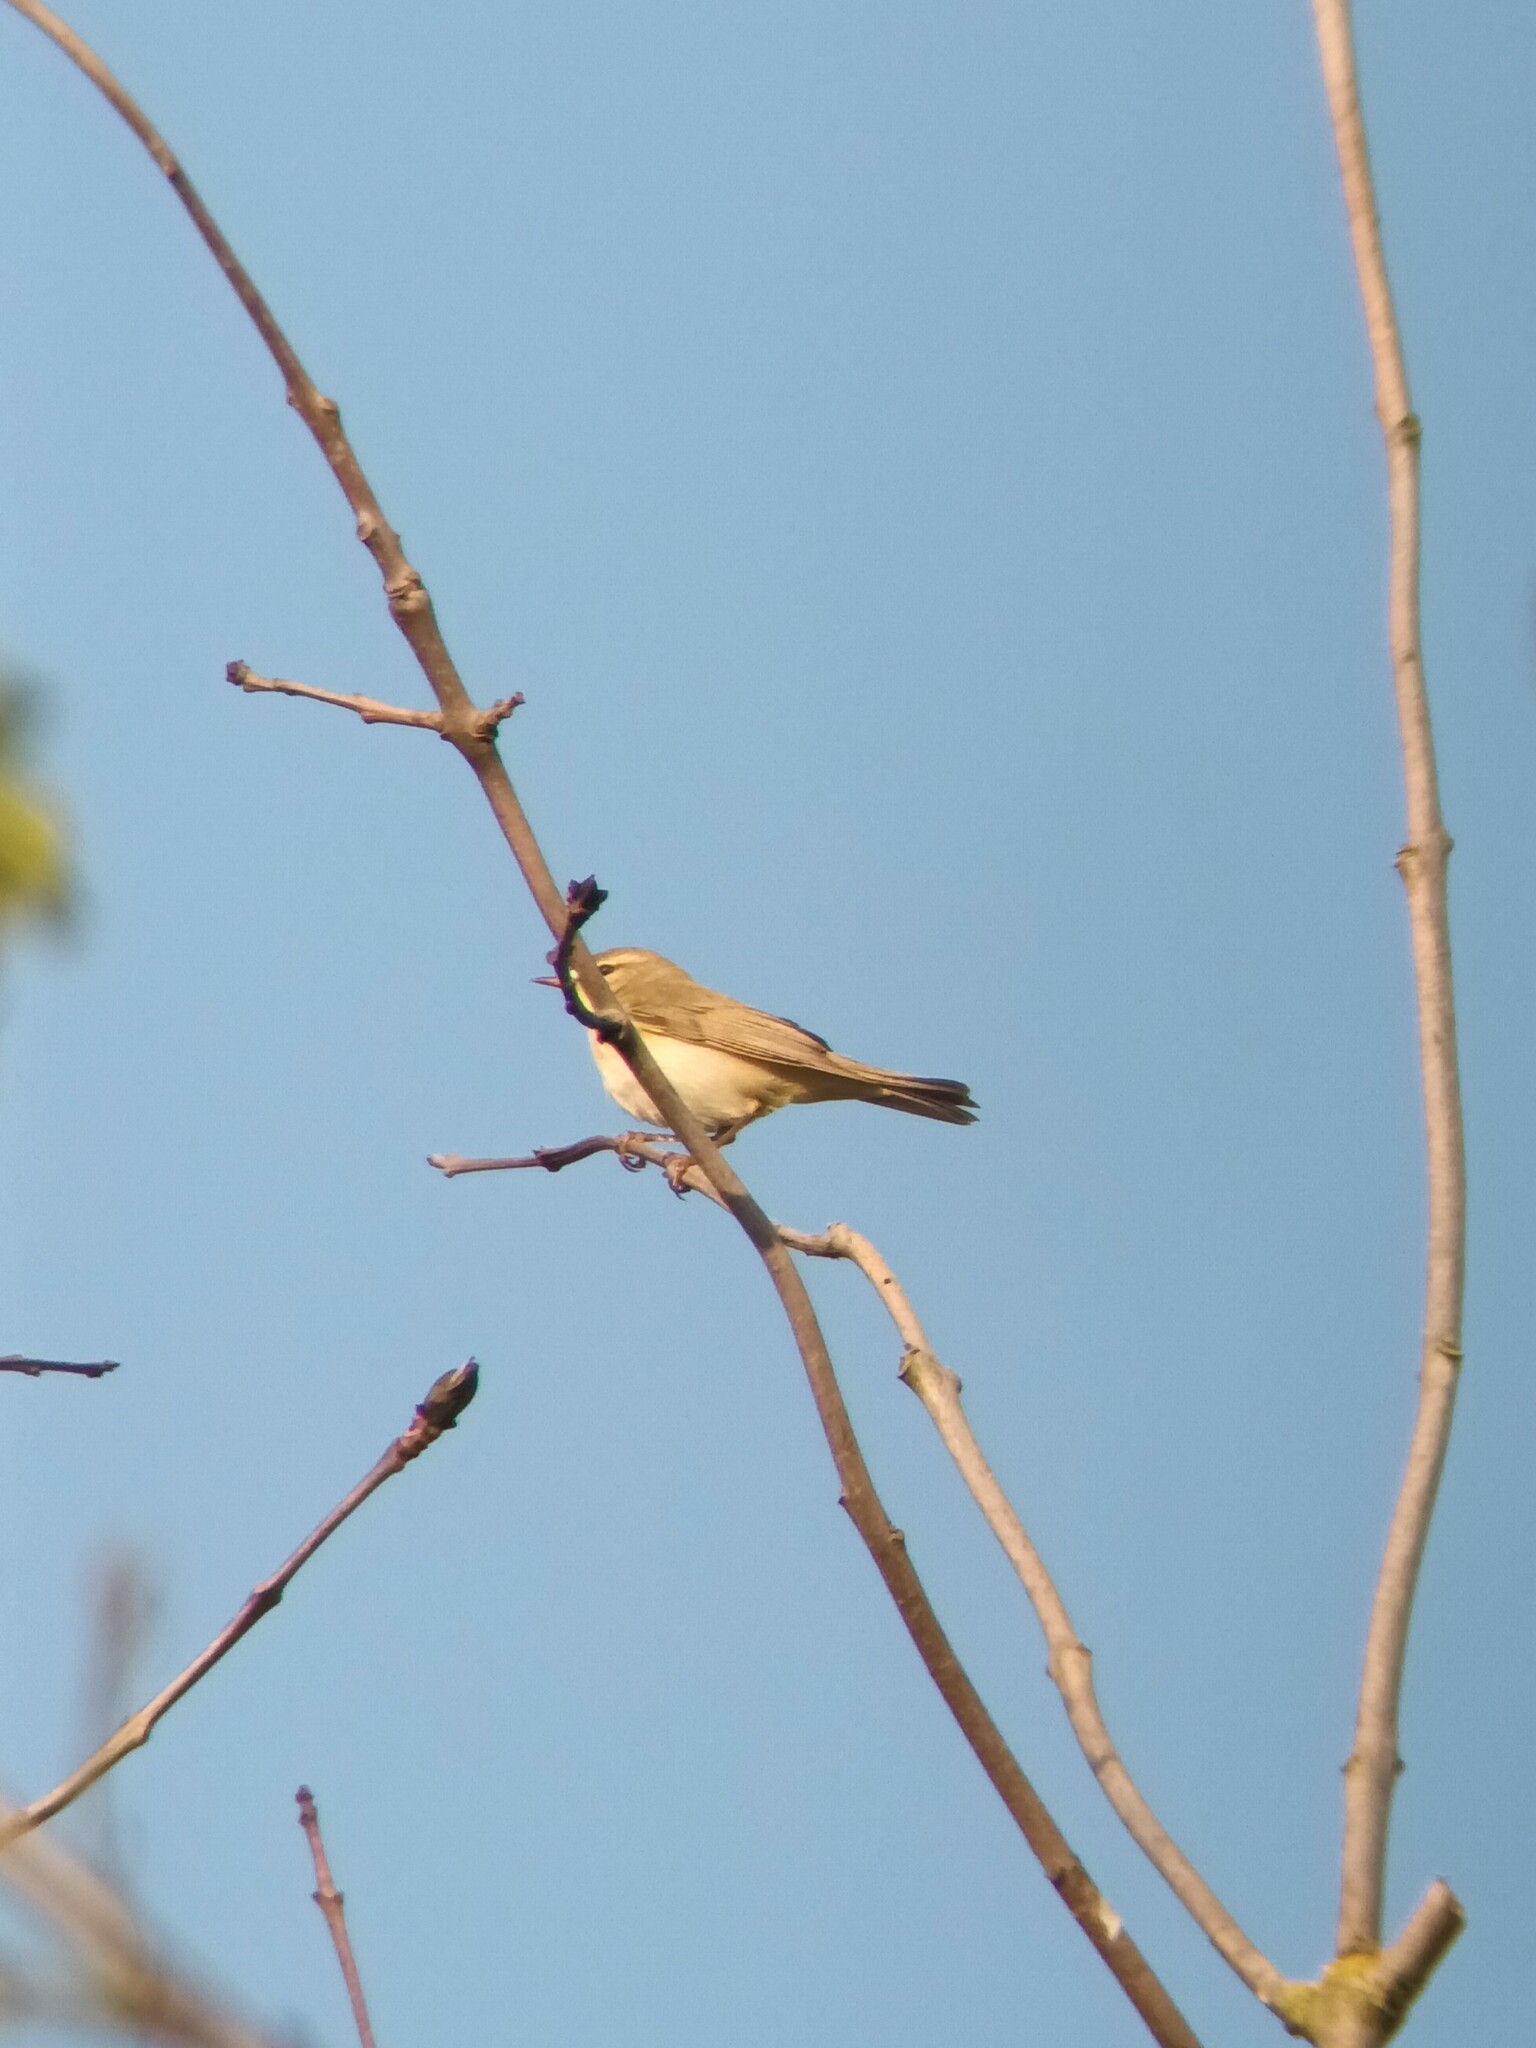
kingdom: Animalia
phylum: Chordata
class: Aves
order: Passeriformes
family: Phylloscopidae
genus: Phylloscopus
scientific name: Phylloscopus trochilus
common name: Willow warbler
